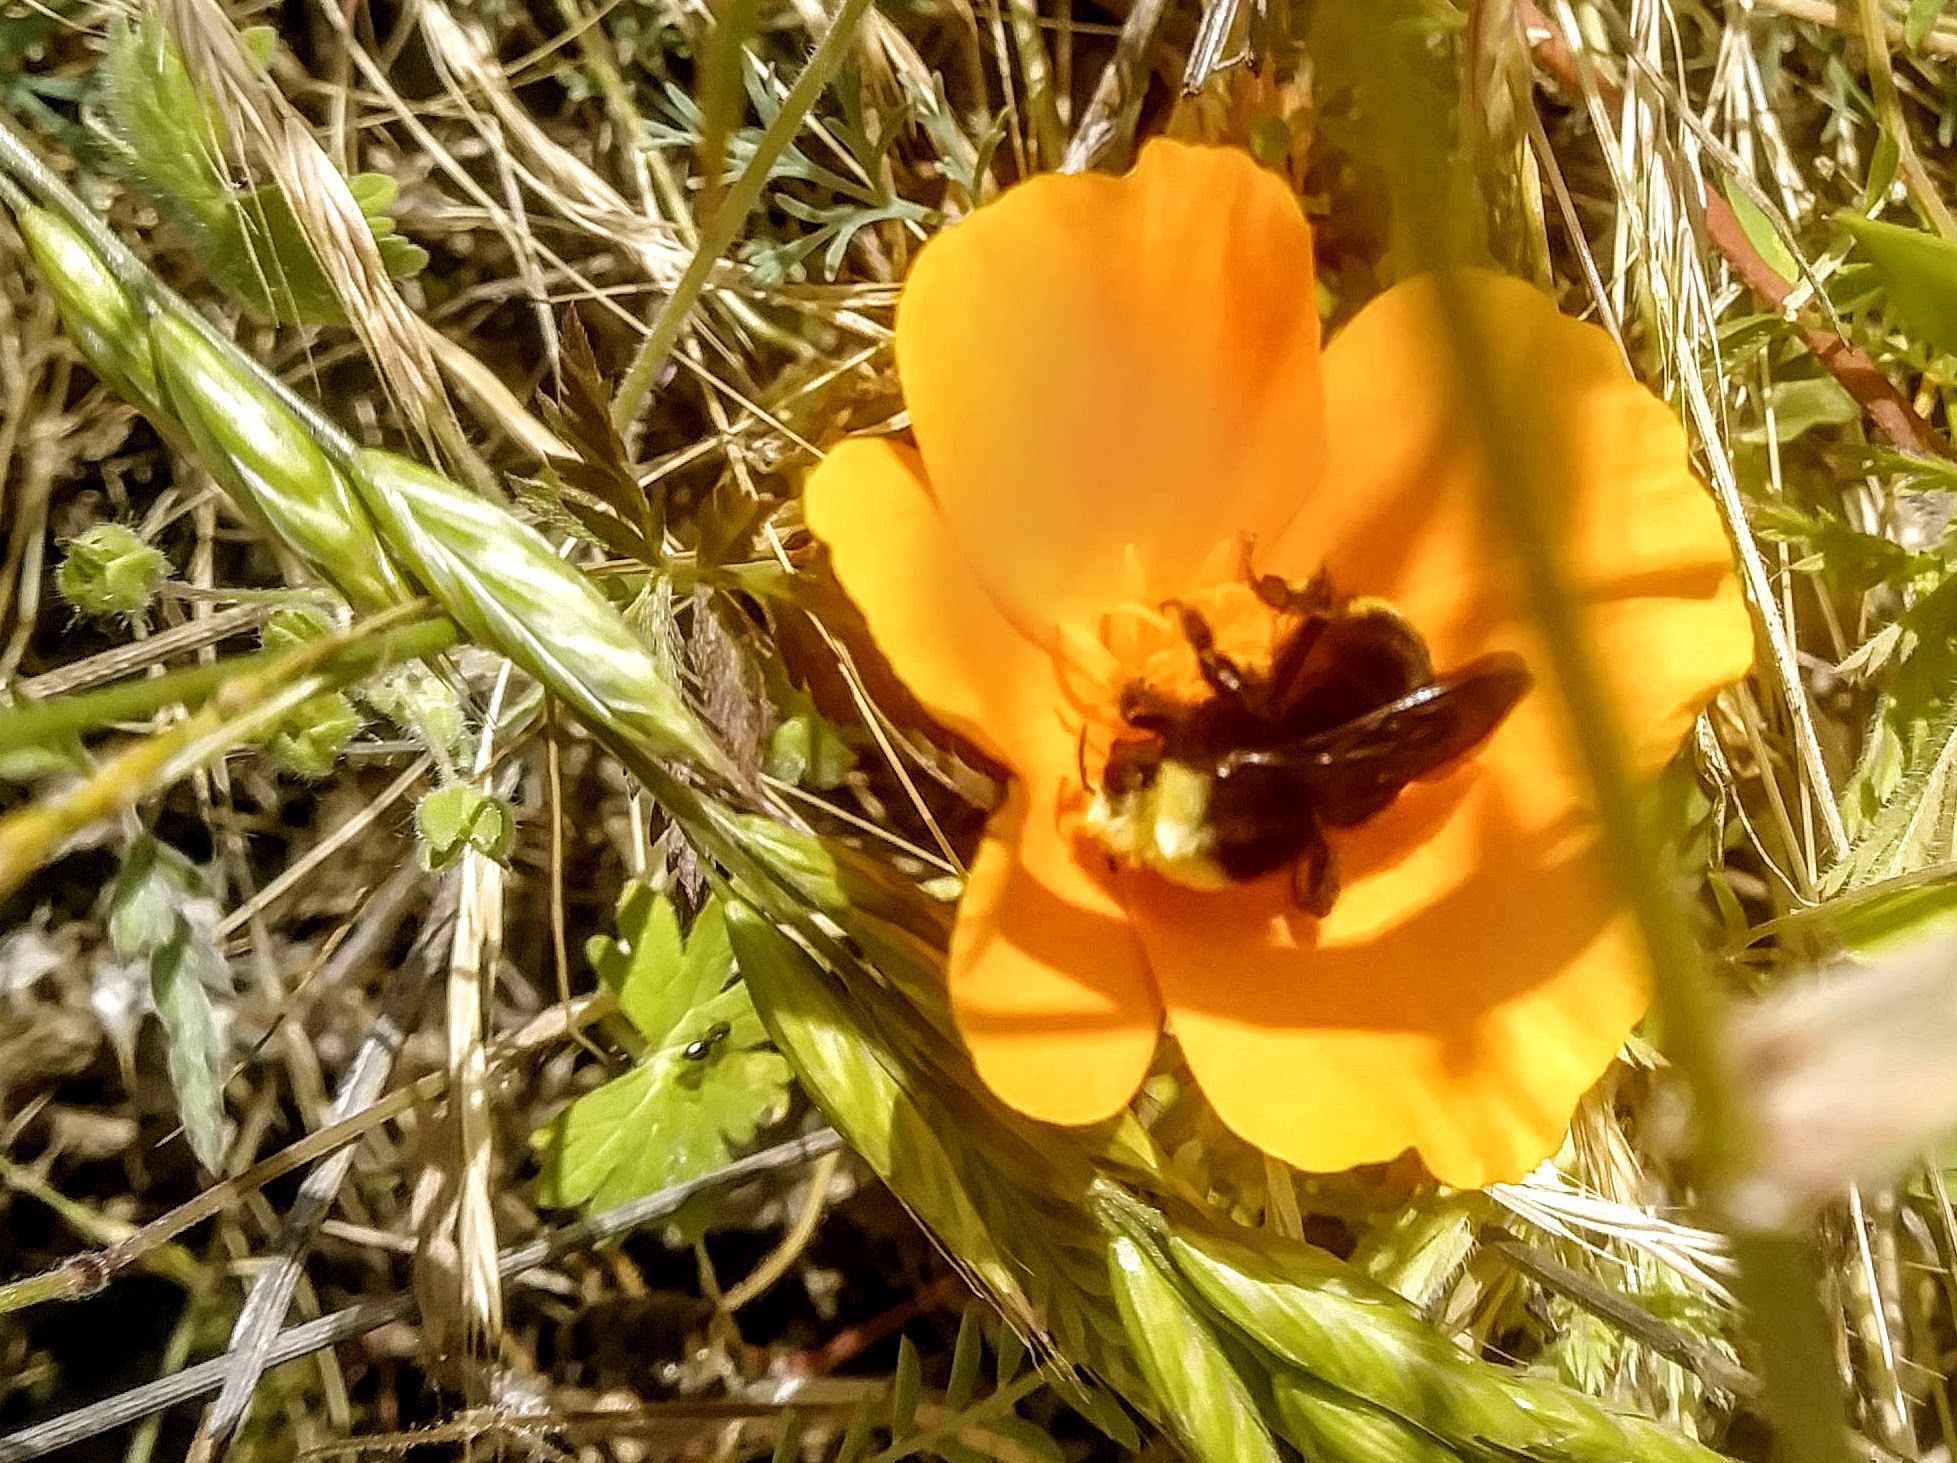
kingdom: Animalia
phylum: Arthropoda
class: Insecta
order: Hymenoptera
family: Apidae
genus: Bombus
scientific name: Bombus vosnesenskii
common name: Vosnesensky bumble bee
